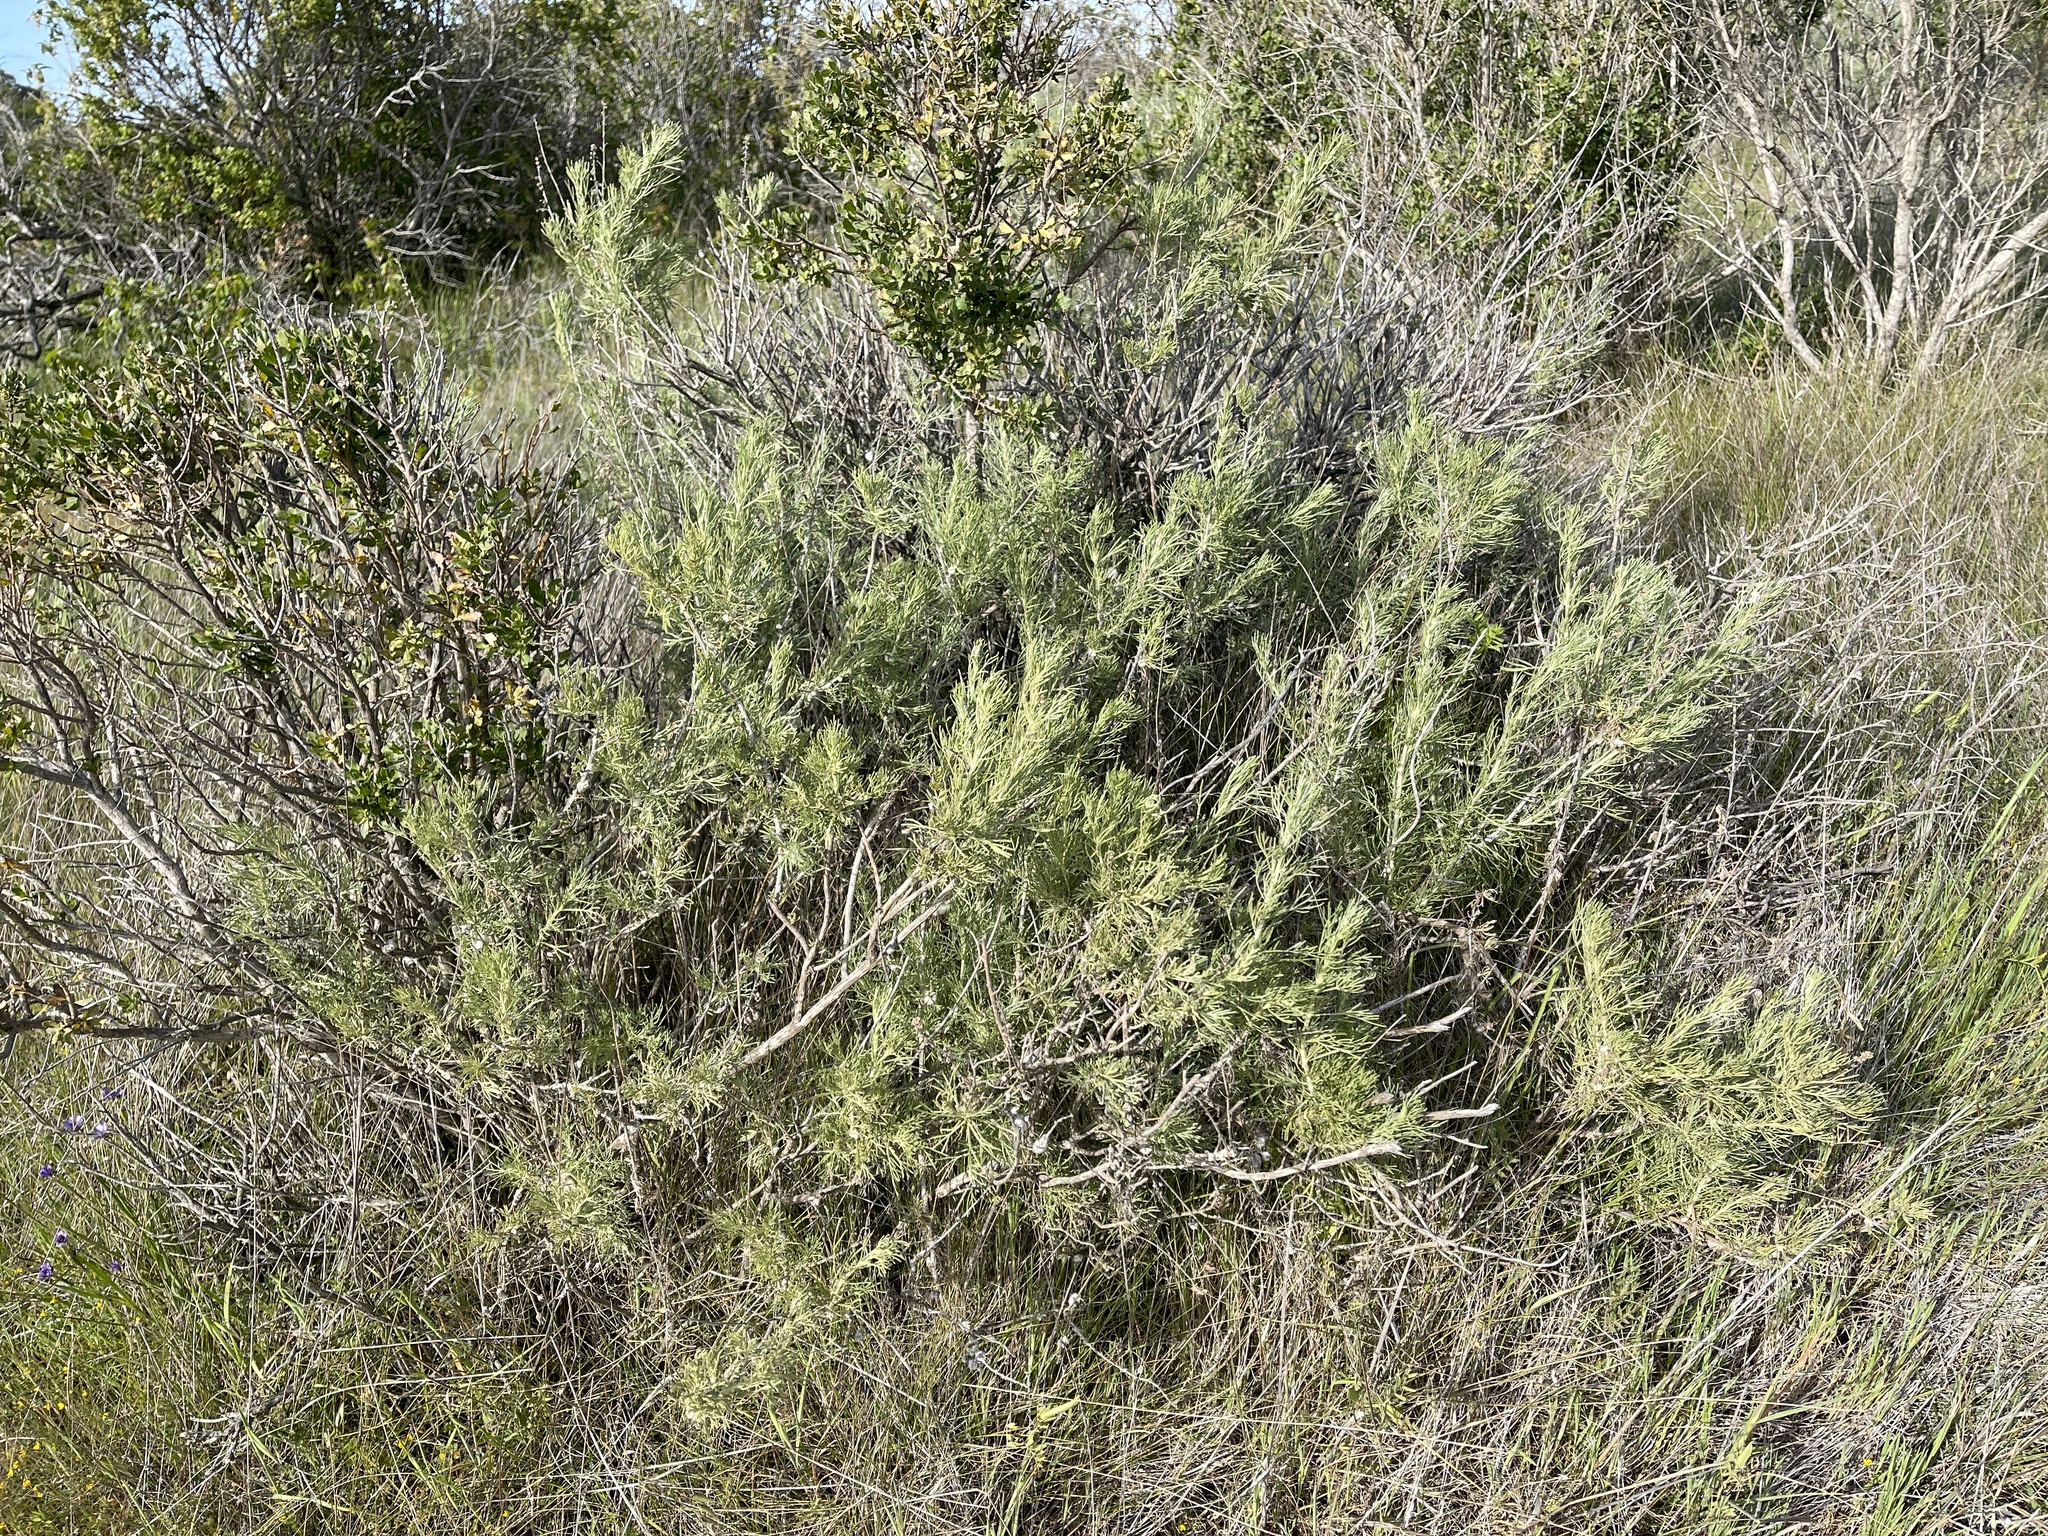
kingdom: Plantae
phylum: Tracheophyta
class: Magnoliopsida
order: Asterales
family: Asteraceae
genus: Artemisia
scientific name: Artemisia californica
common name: California sagebrush
